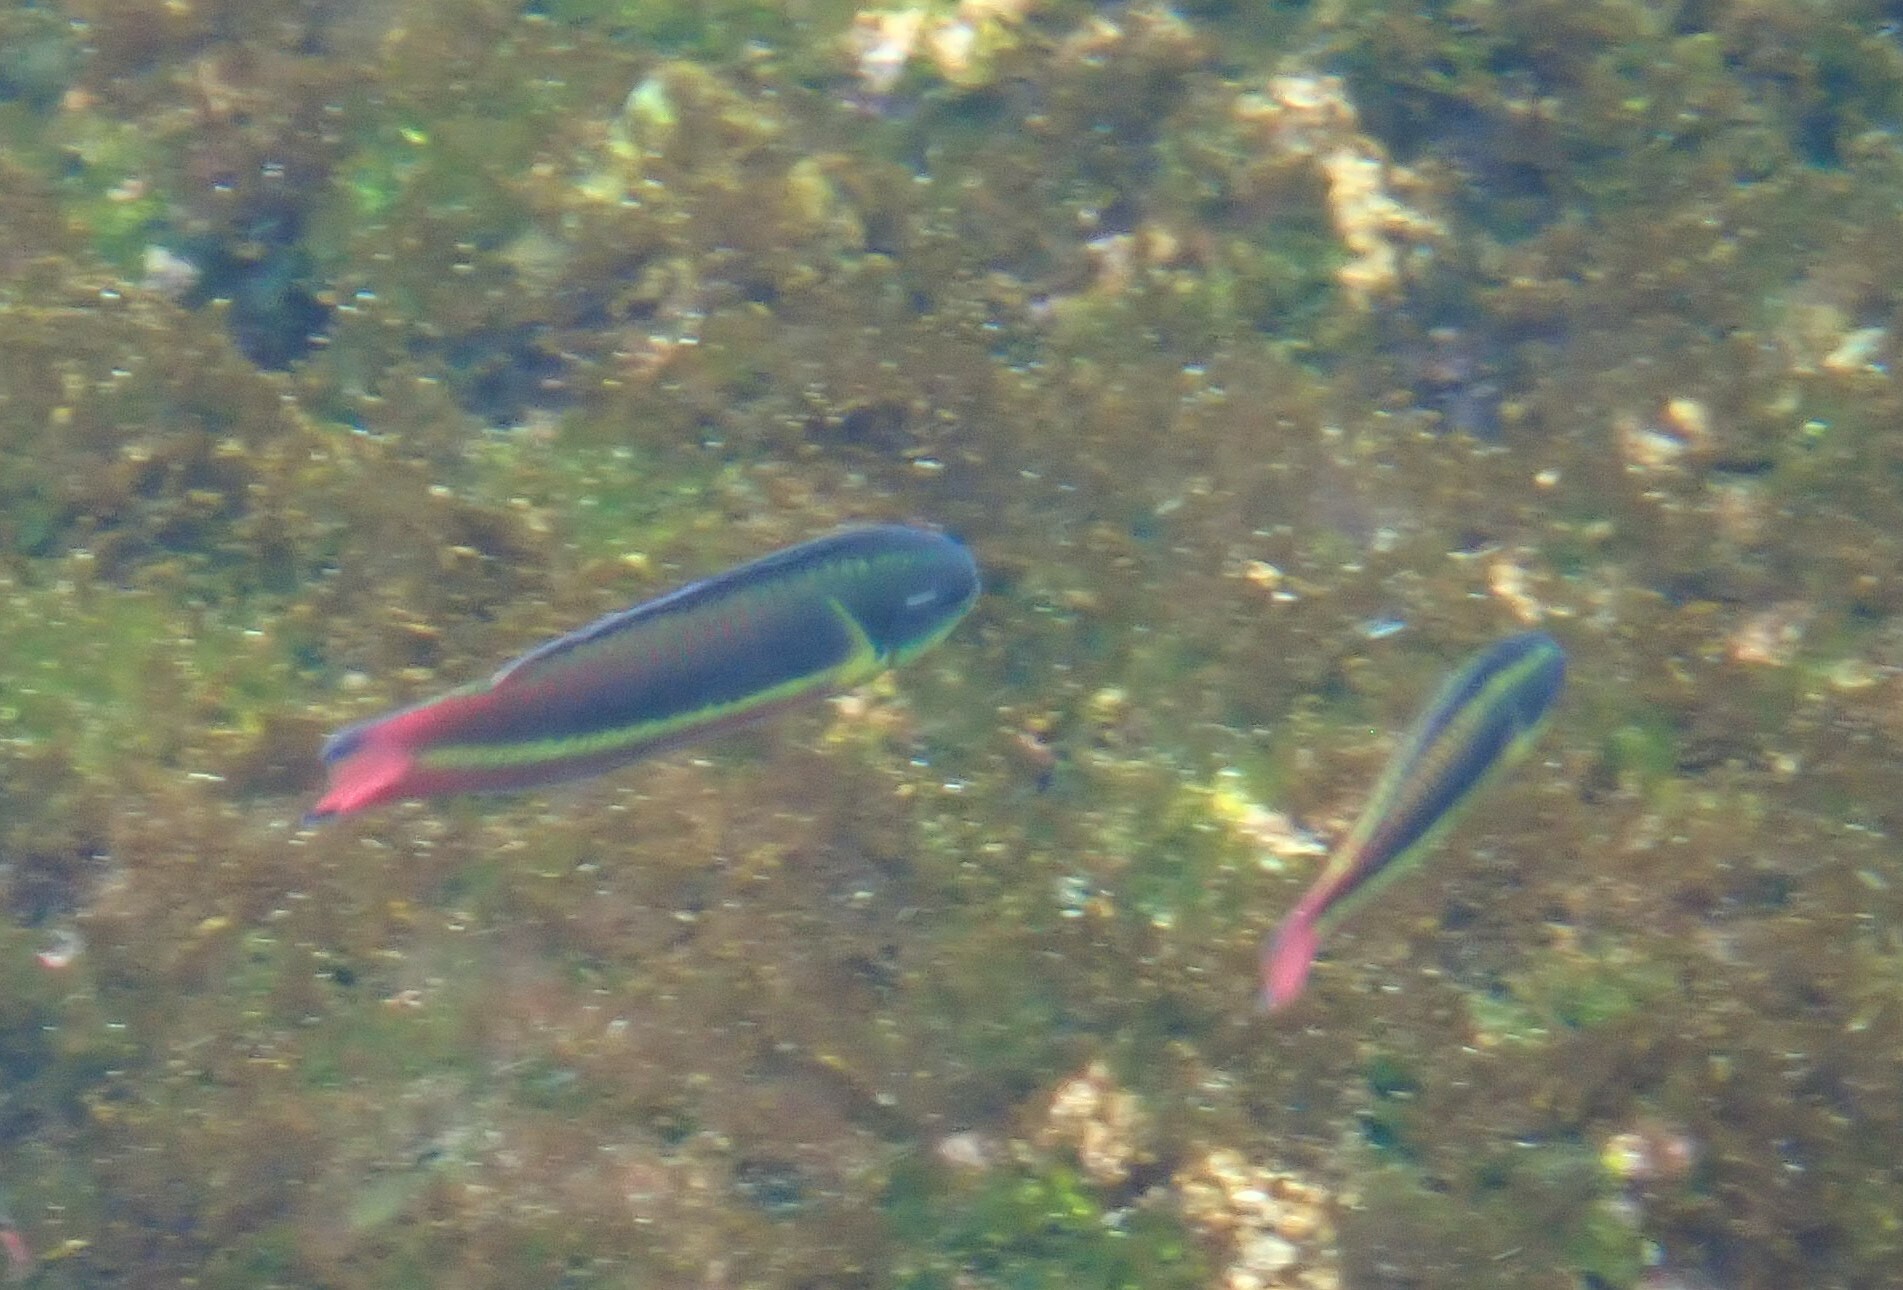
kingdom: Animalia
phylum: Chordata
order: Perciformes
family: Labridae
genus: Thalassoma
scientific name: Thalassoma lucasanum
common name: Cortez rainbow wrasse
